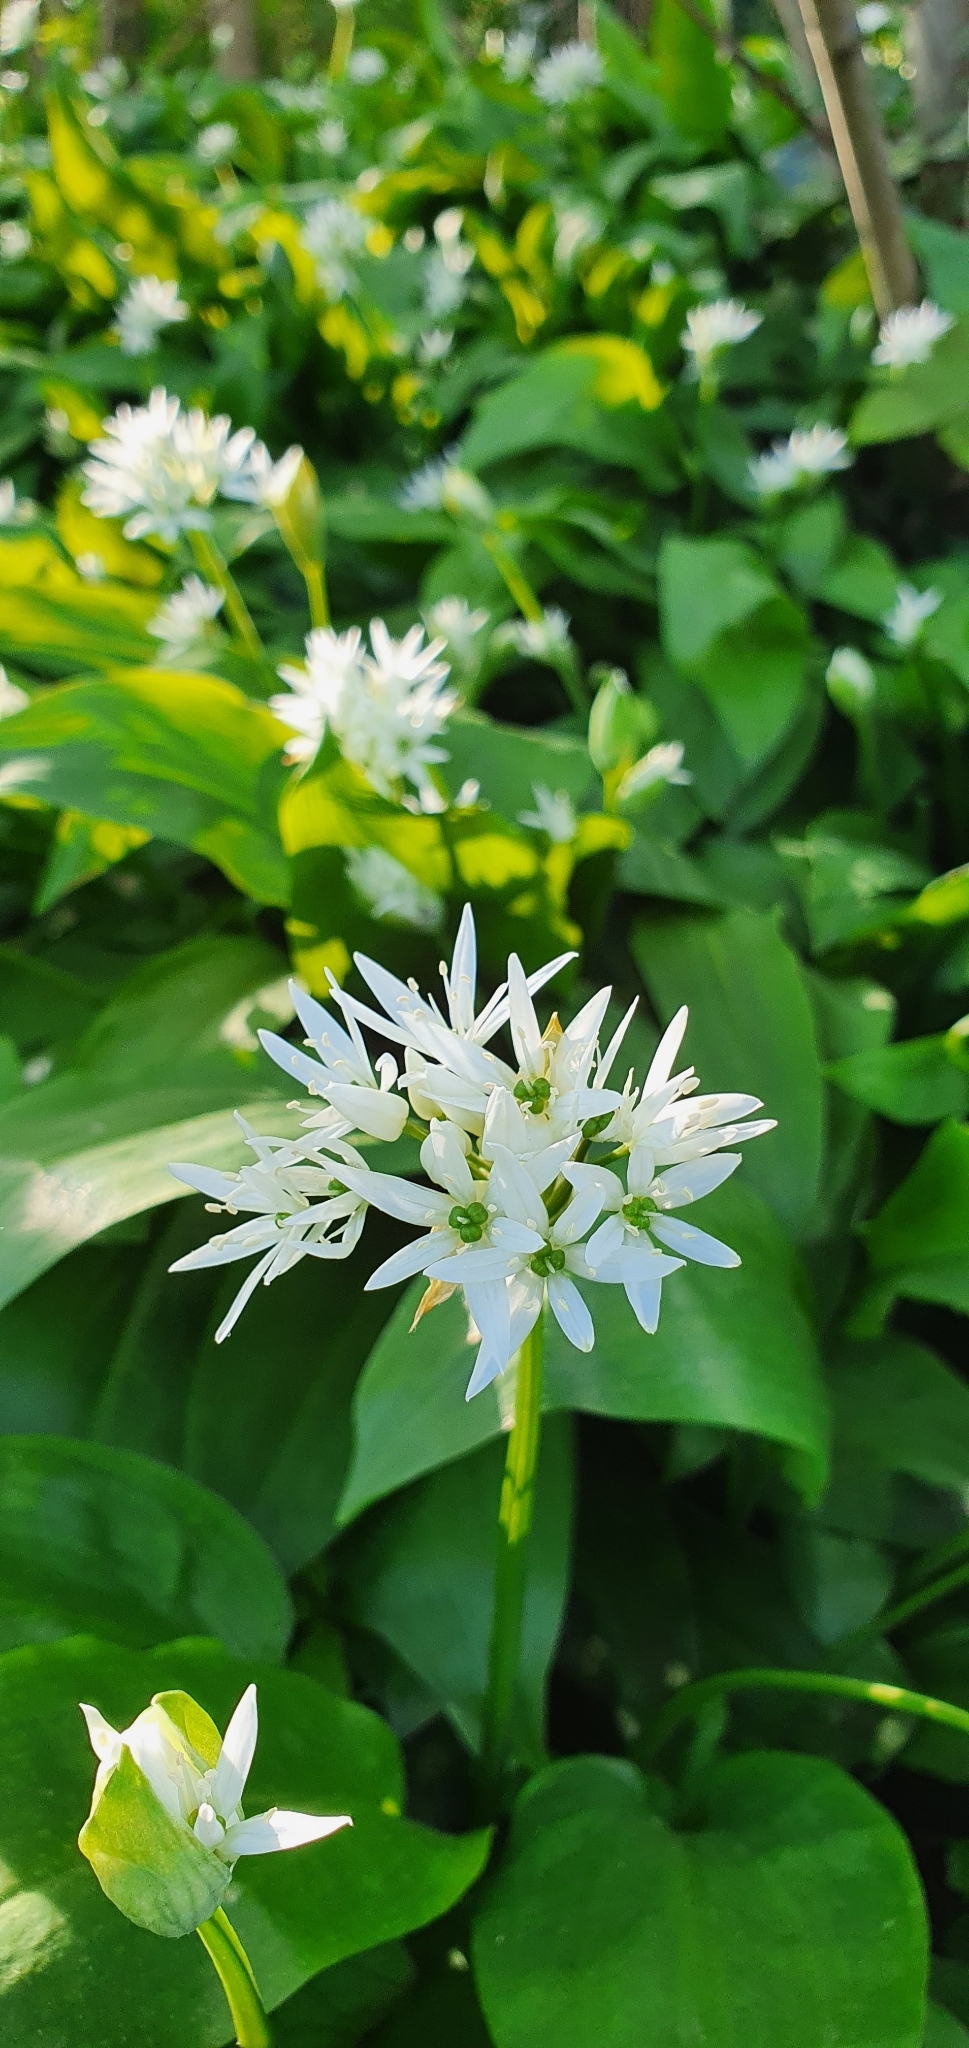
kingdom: Plantae
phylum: Tracheophyta
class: Liliopsida
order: Asparagales
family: Amaryllidaceae
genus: Allium
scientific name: Allium ursinum
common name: Ramsons
